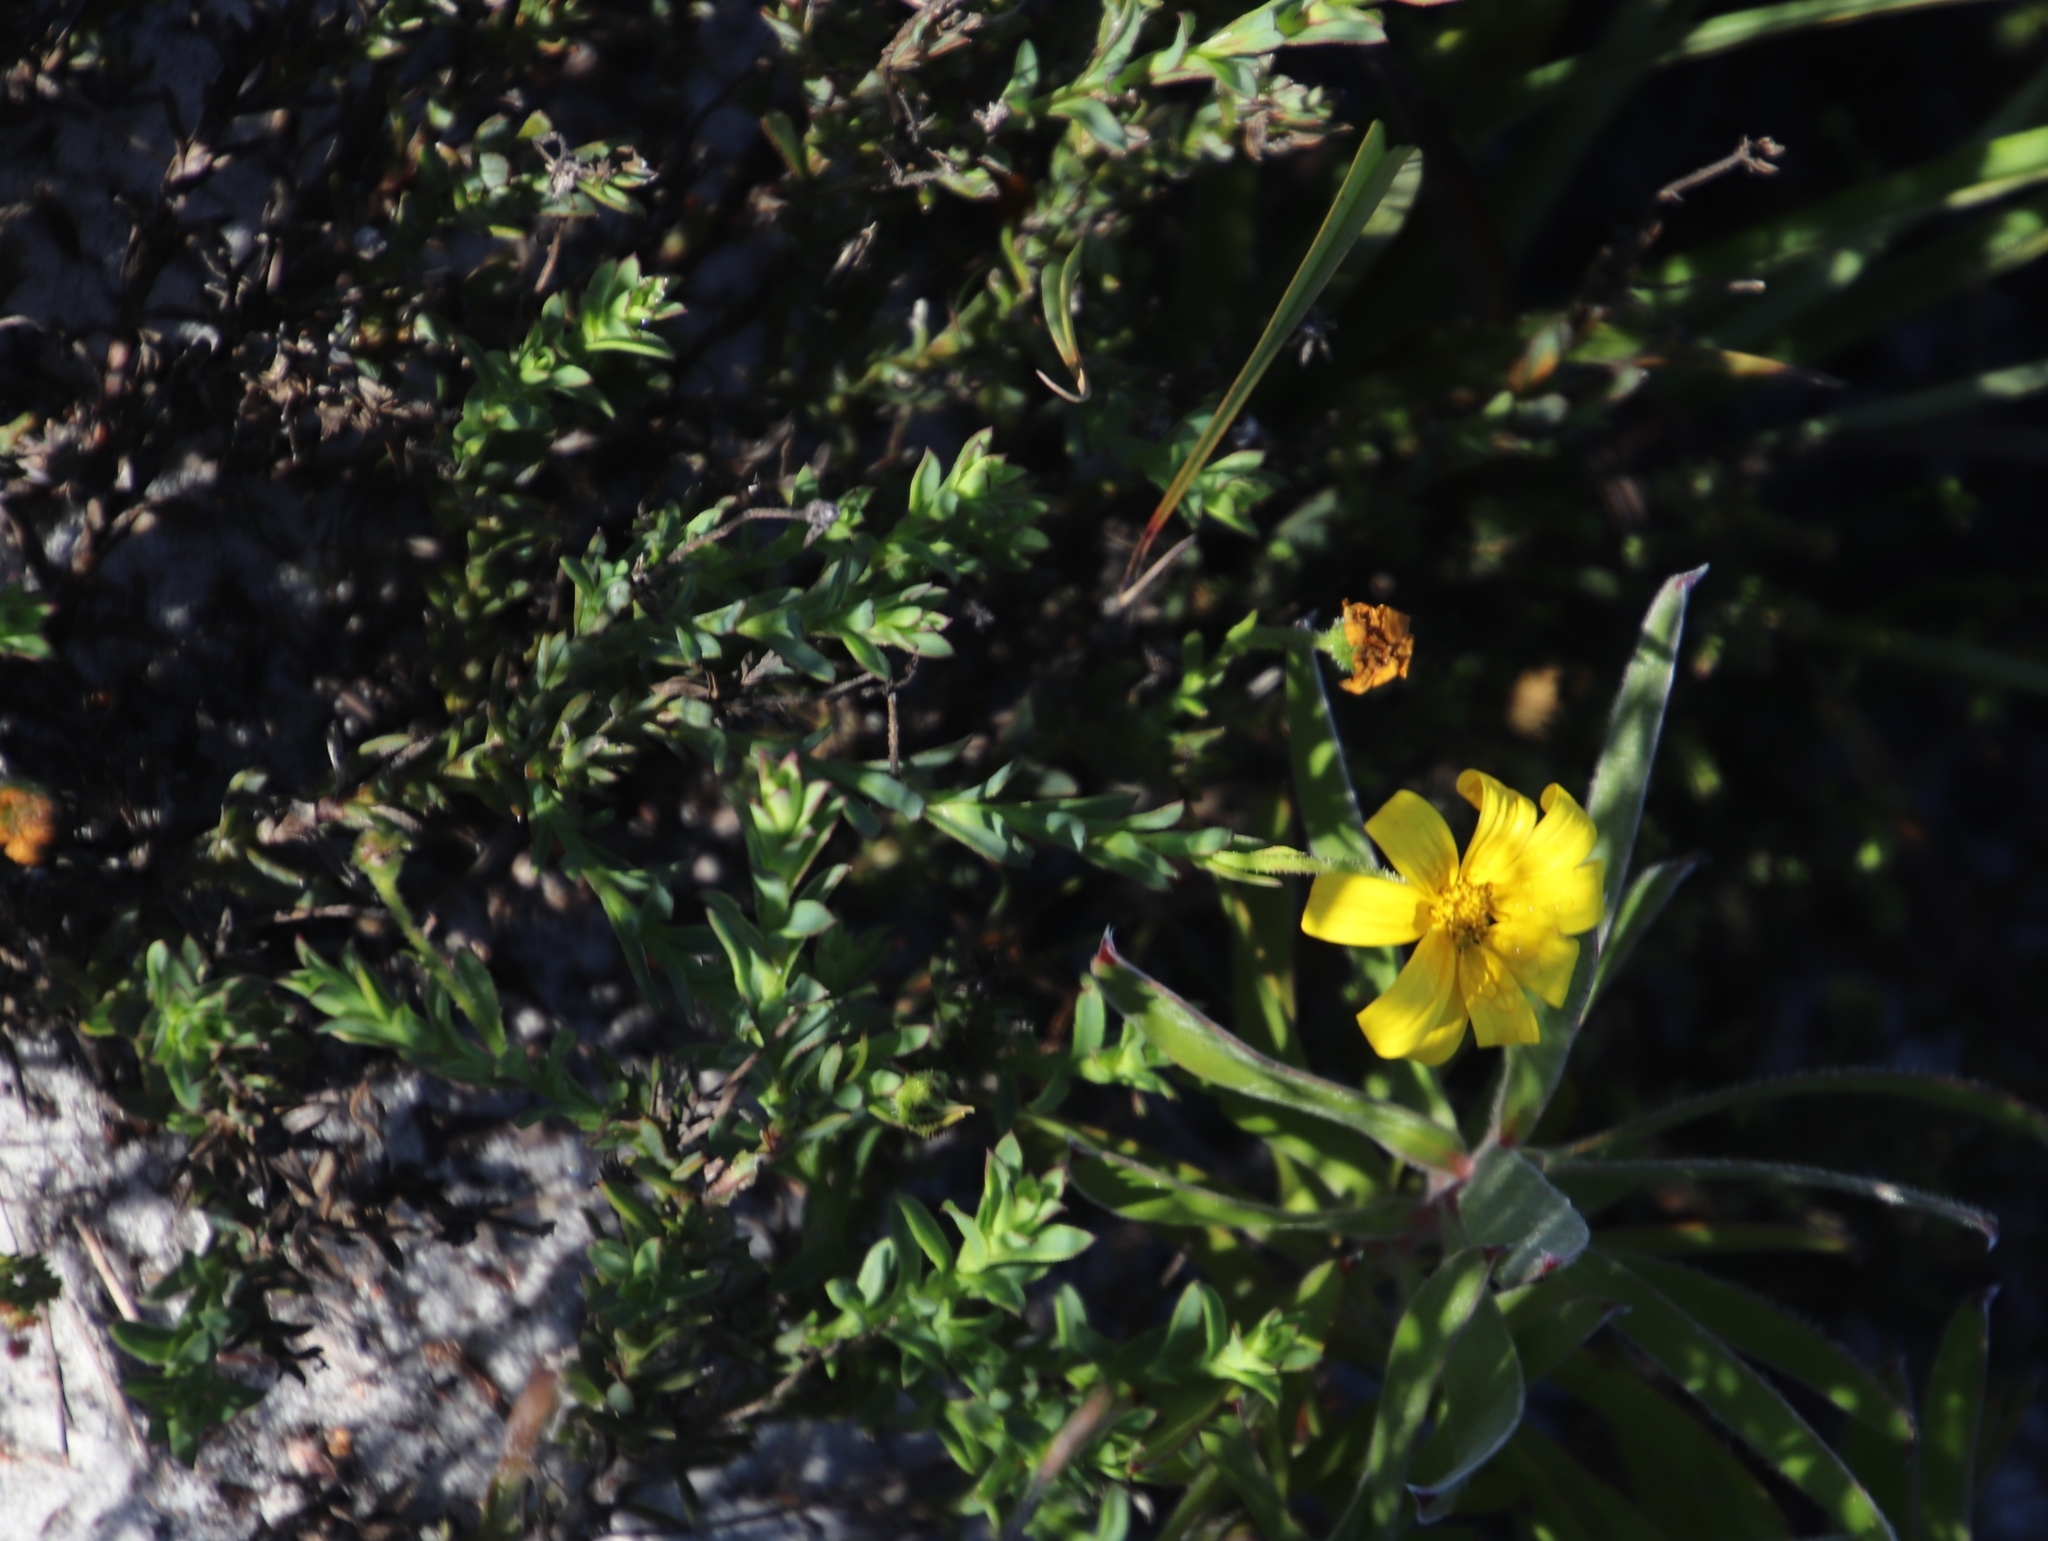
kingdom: Plantae
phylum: Tracheophyta
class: Magnoliopsida
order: Asterales
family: Asteraceae
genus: Osteospermum
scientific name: Osteospermum polygaloides
